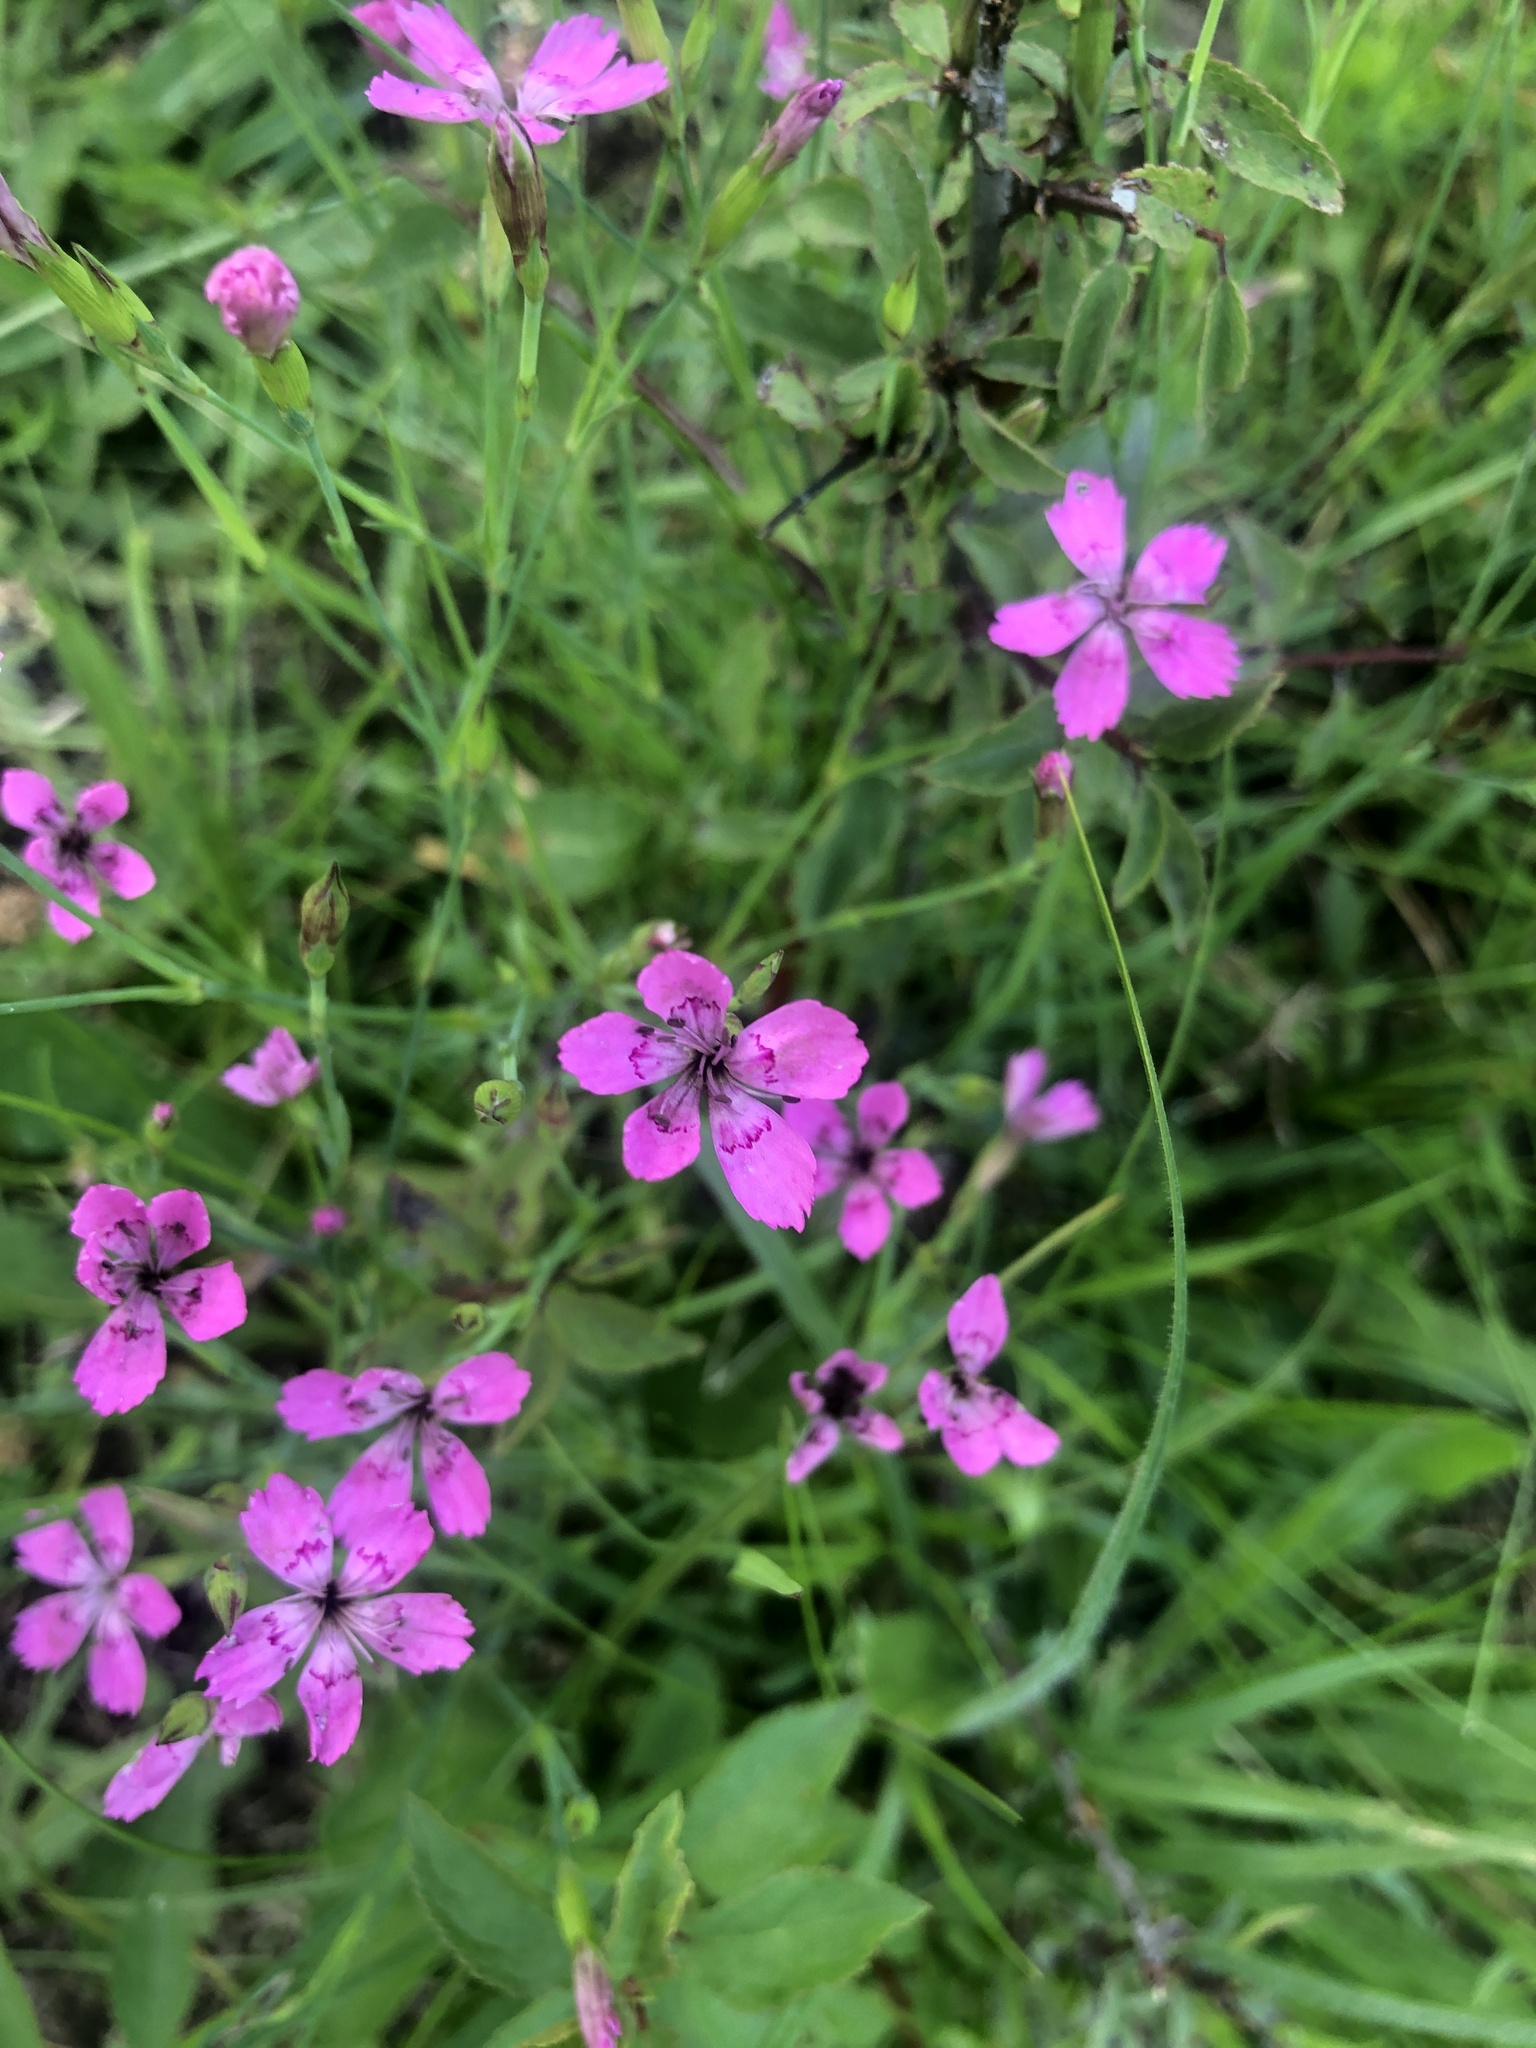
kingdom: Plantae
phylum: Tracheophyta
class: Magnoliopsida
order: Caryophyllales
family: Caryophyllaceae
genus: Dianthus
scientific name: Dianthus deltoides
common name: Maiden pink
